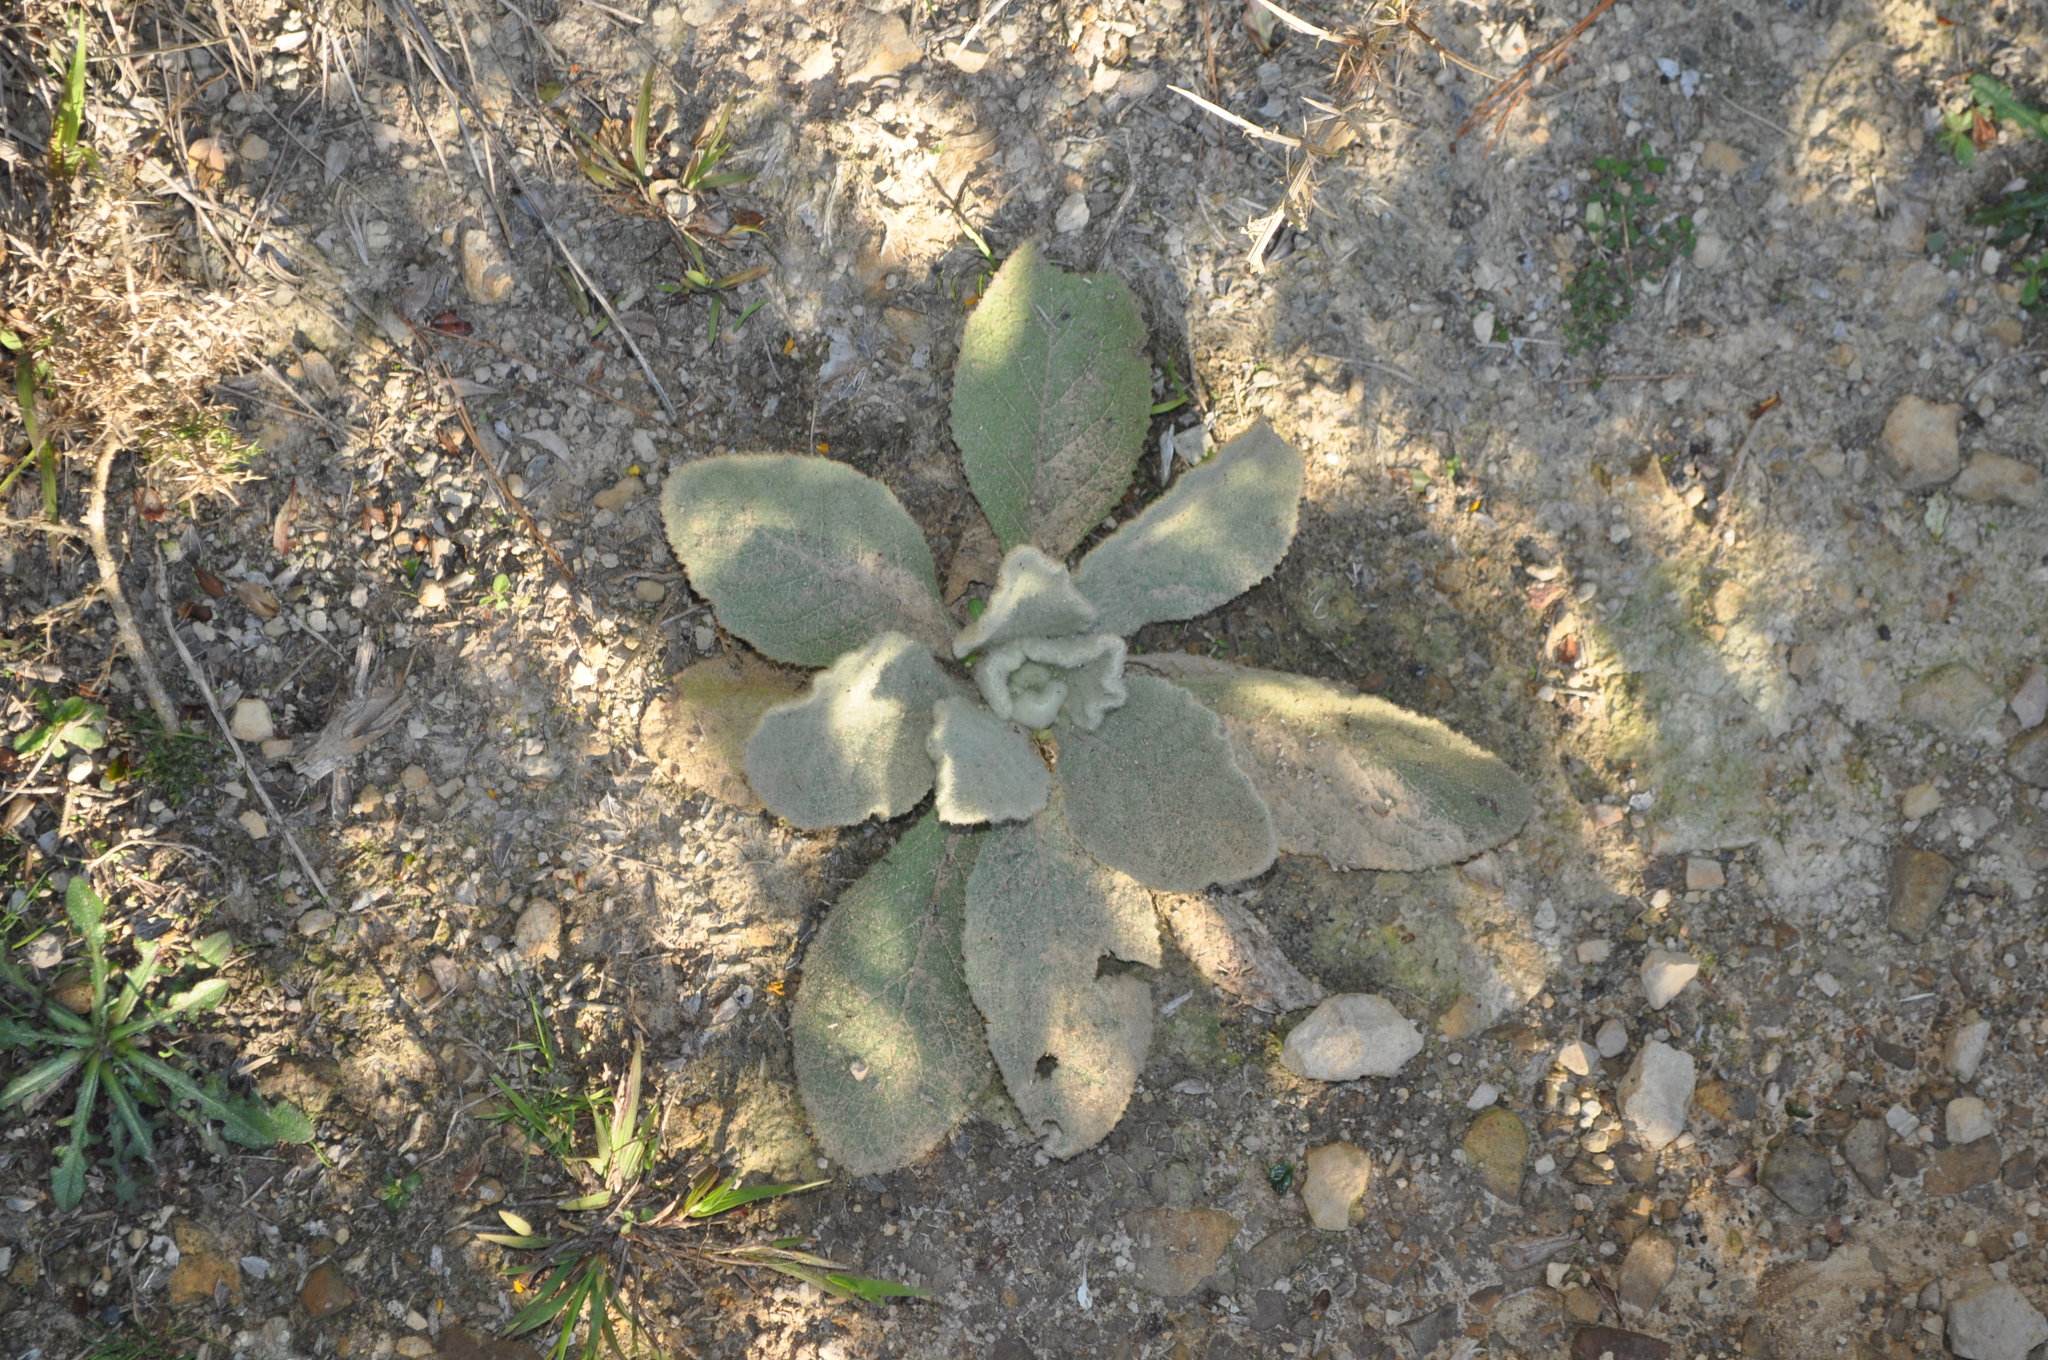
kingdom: Plantae
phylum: Tracheophyta
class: Magnoliopsida
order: Lamiales
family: Scrophulariaceae
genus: Verbascum
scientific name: Verbascum thapsus
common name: Common mullein
